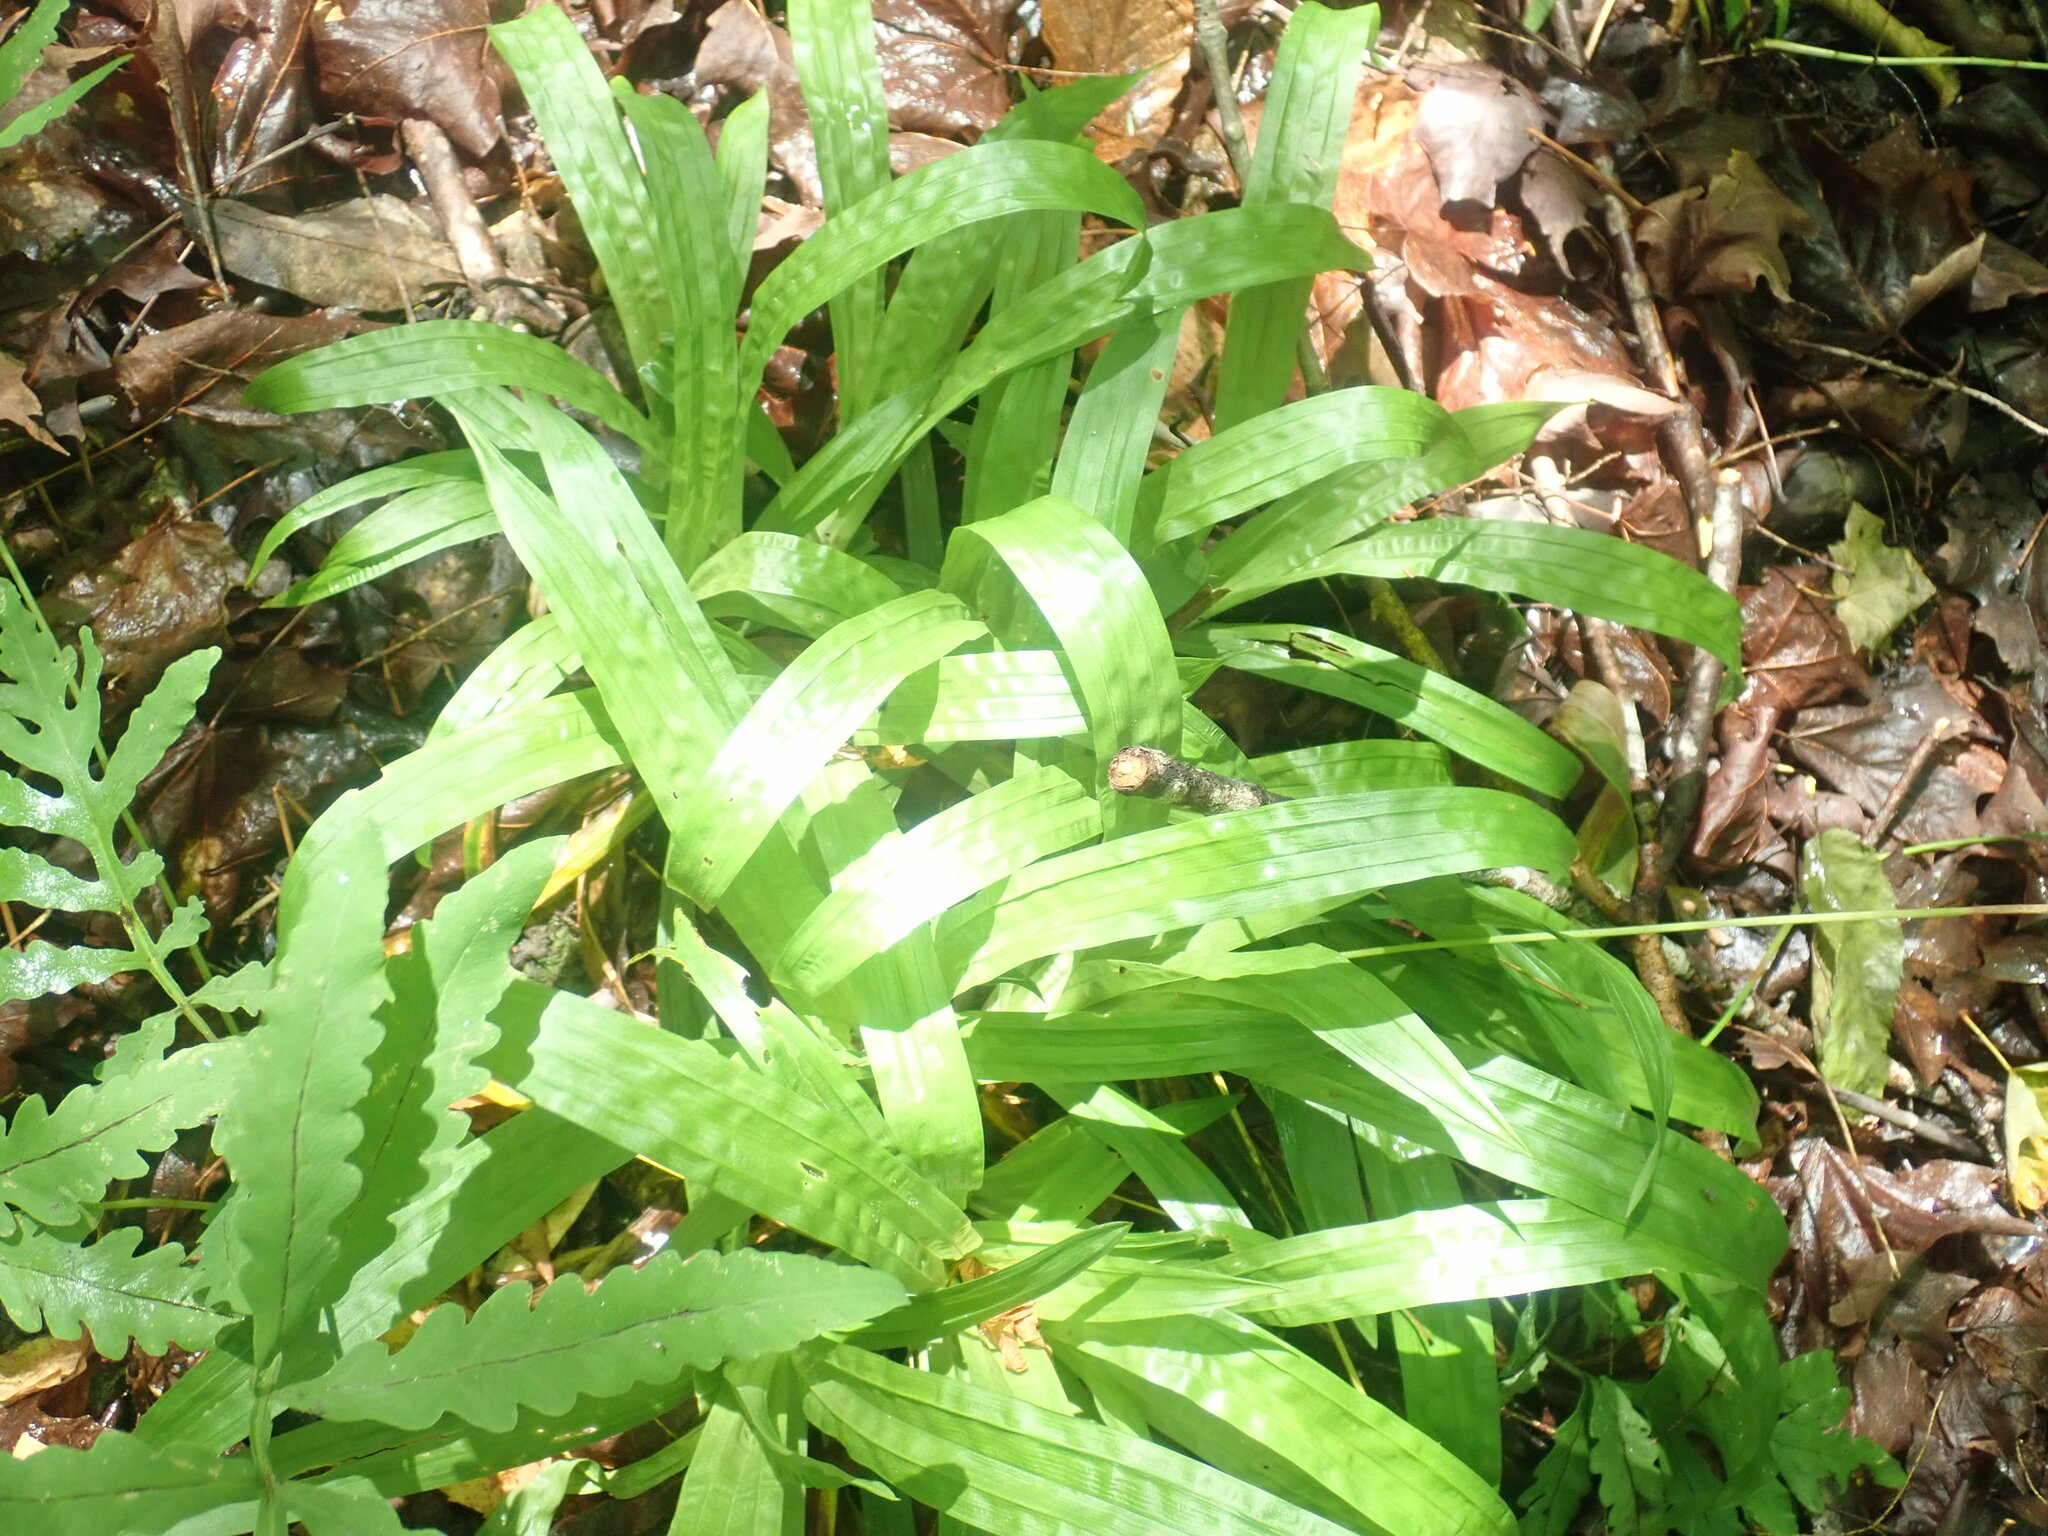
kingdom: Plantae
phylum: Tracheophyta
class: Liliopsida
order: Poales
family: Cyperaceae
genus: Carex
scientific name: Carex plantaginea
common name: Plantain-leaved sedge
